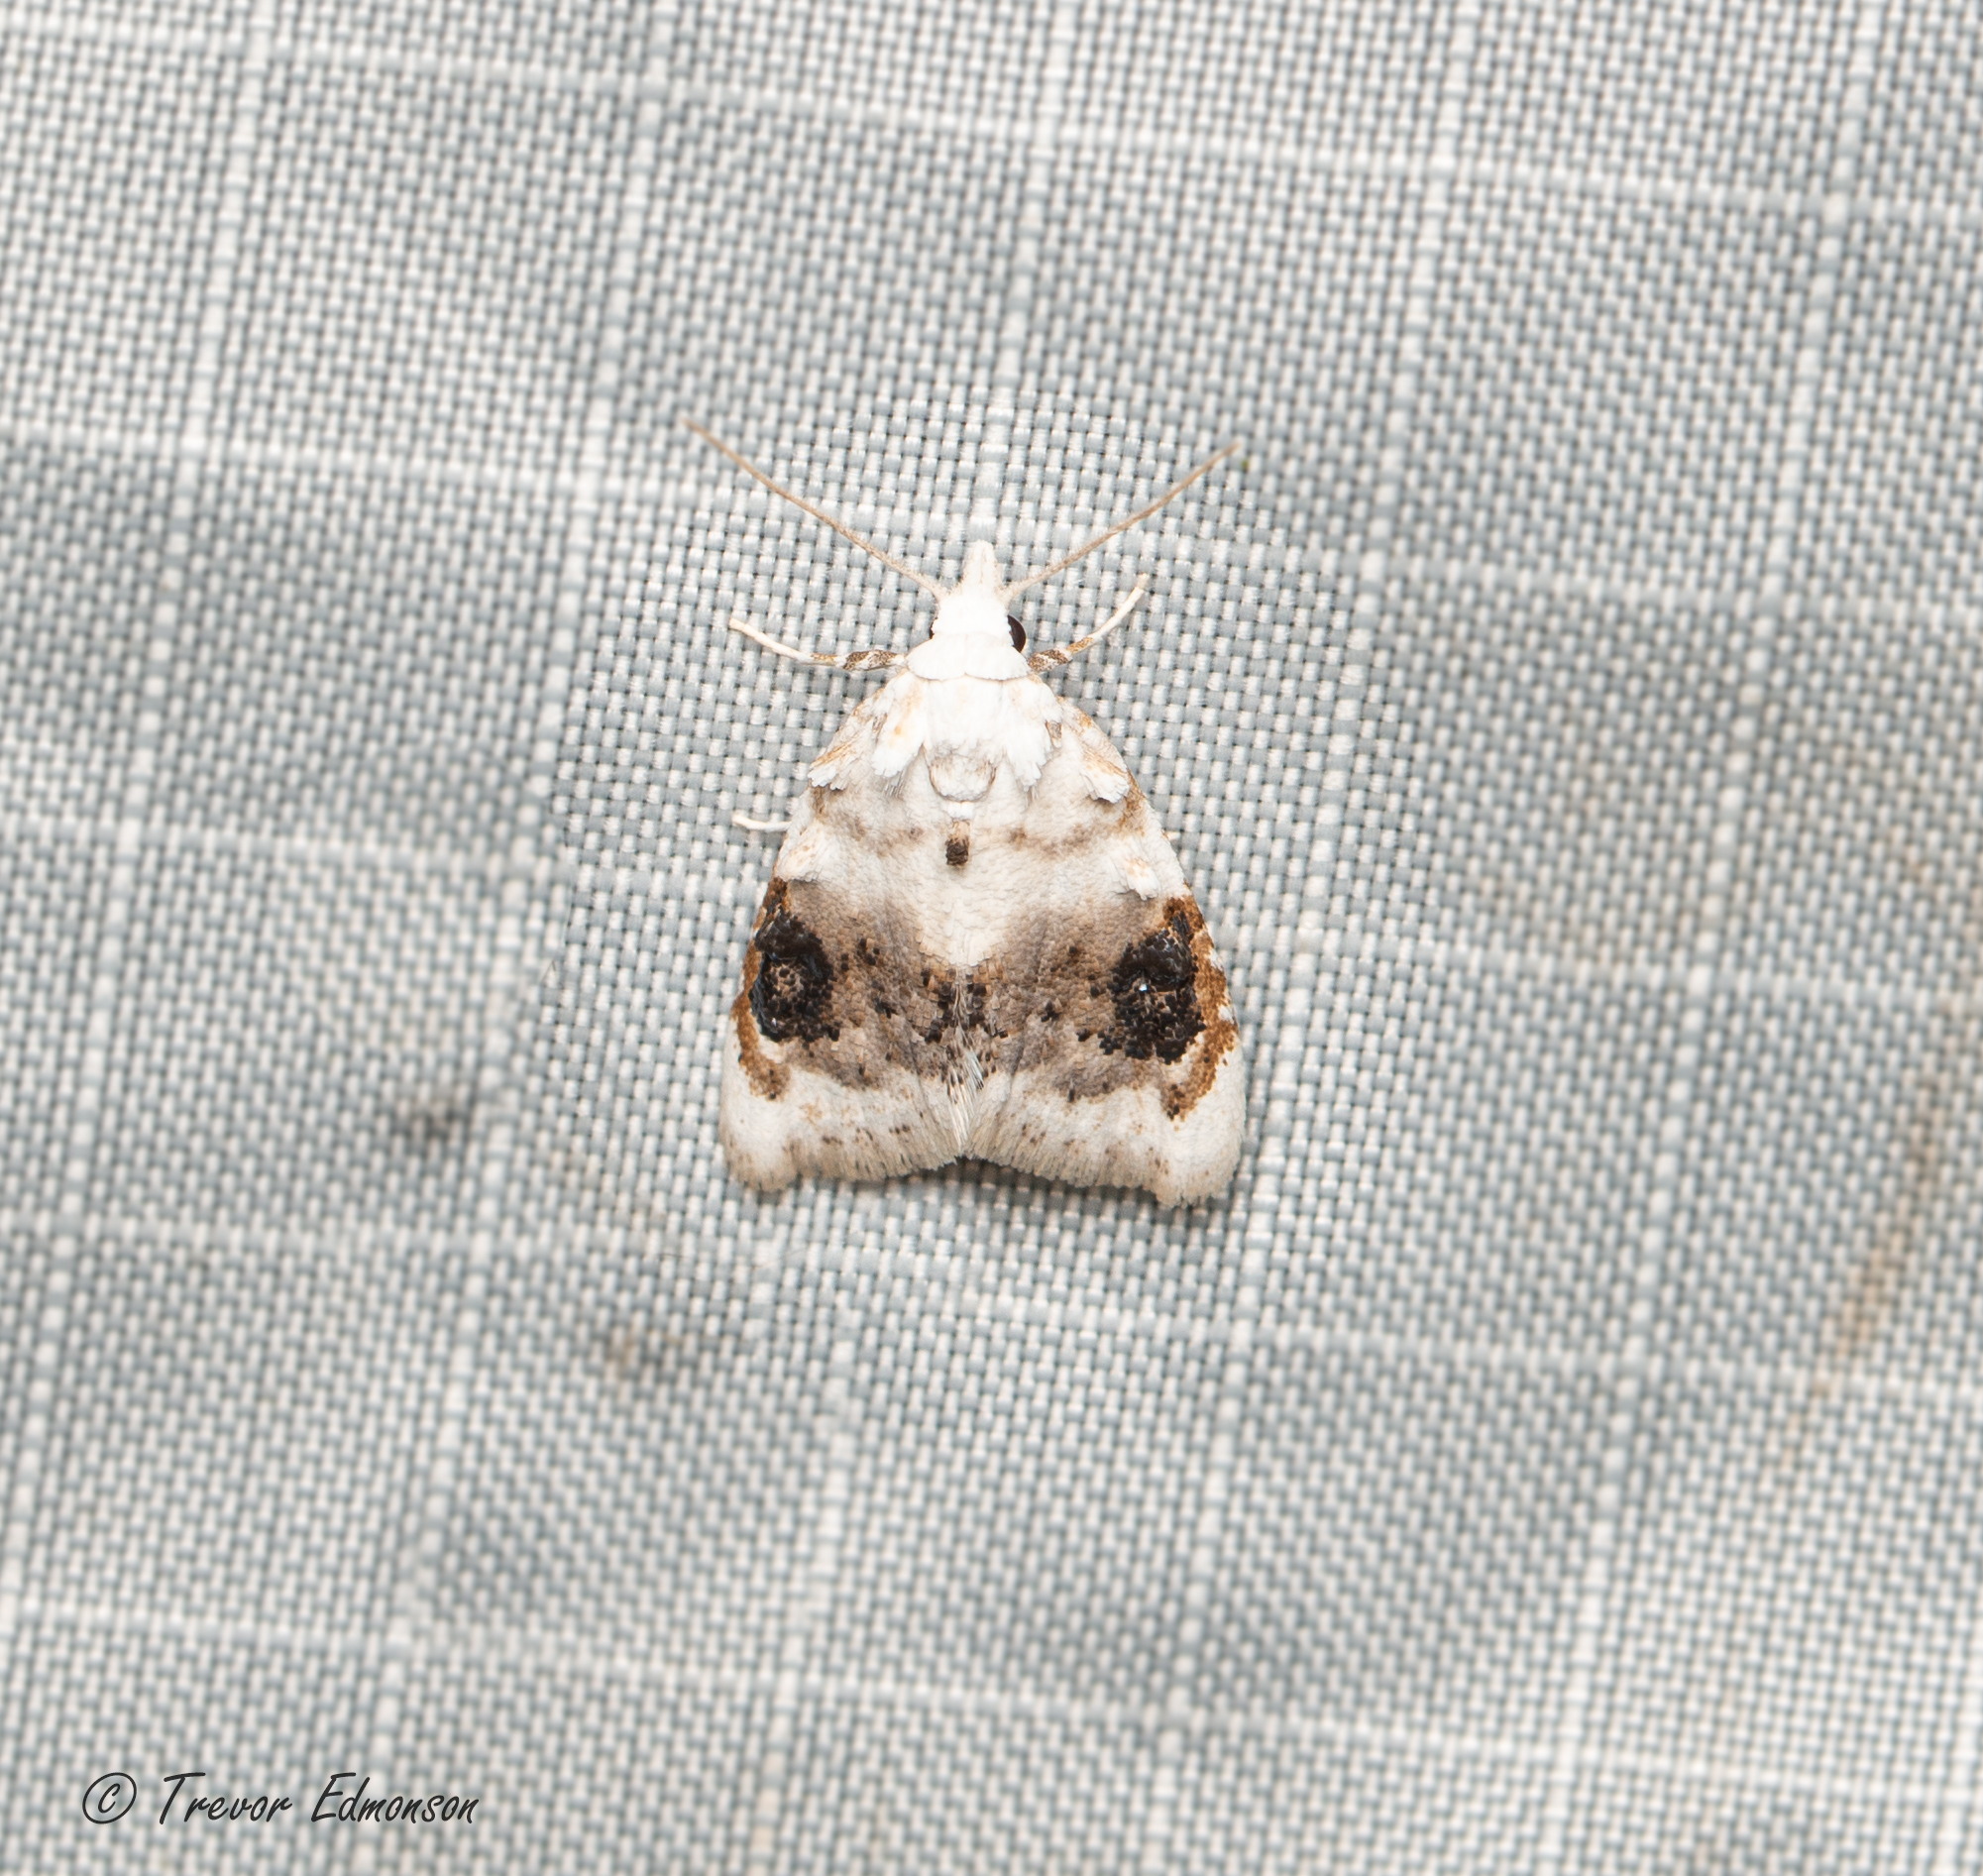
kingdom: Animalia
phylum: Arthropoda
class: Insecta
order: Lepidoptera
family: Nolidae
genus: Nola
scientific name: Nola cilicoides
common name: Blurry-patched nola moth
